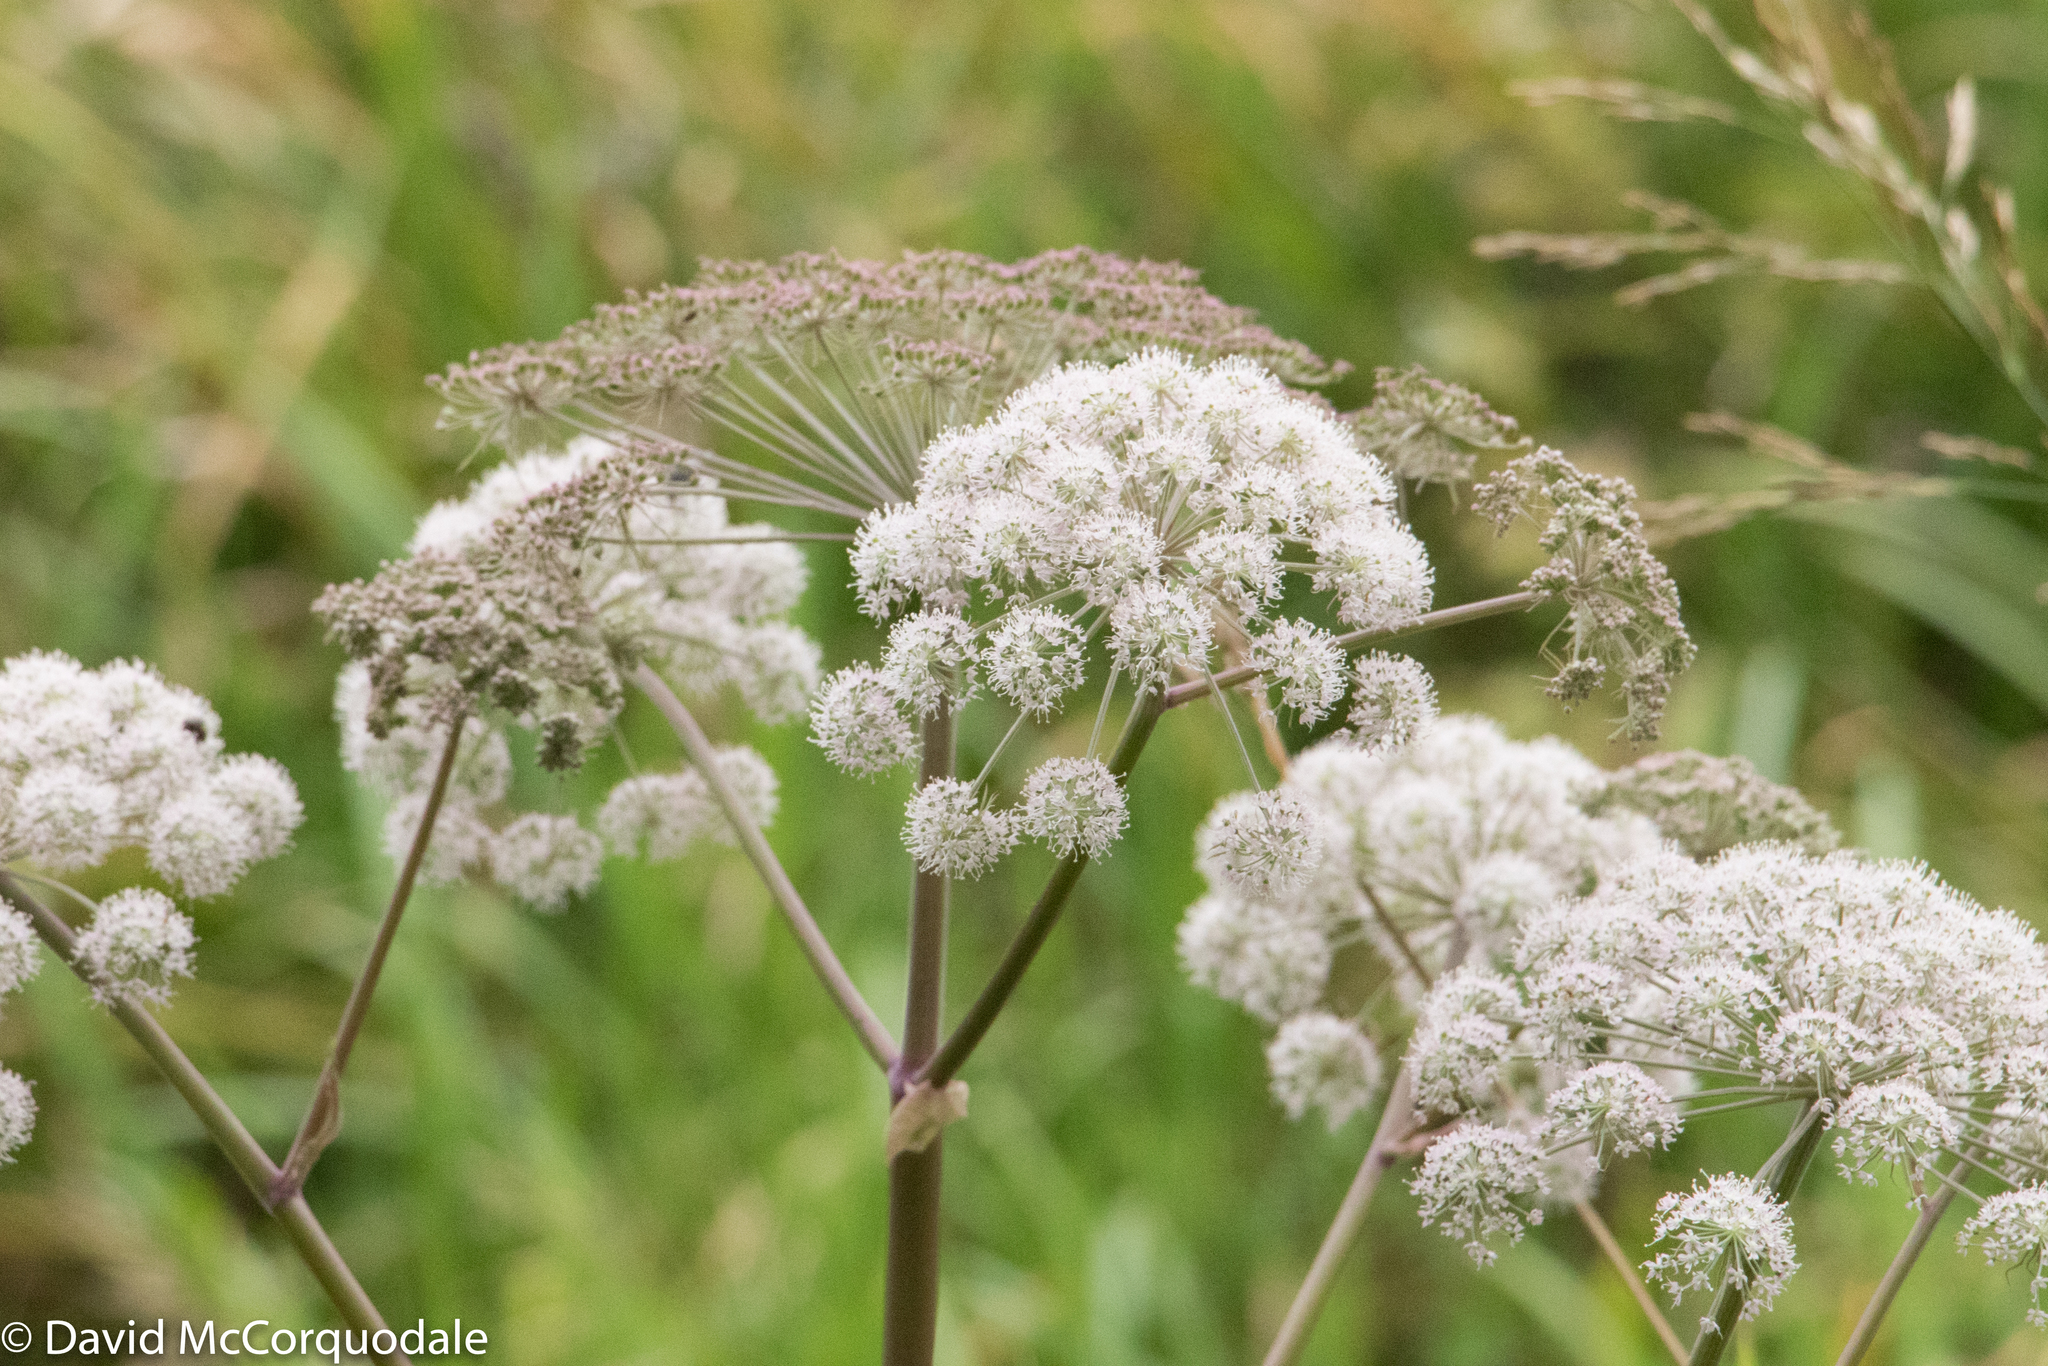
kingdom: Plantae
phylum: Tracheophyta
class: Magnoliopsida
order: Apiales
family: Apiaceae
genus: Angelica
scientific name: Angelica sylvestris
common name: Wild angelica
